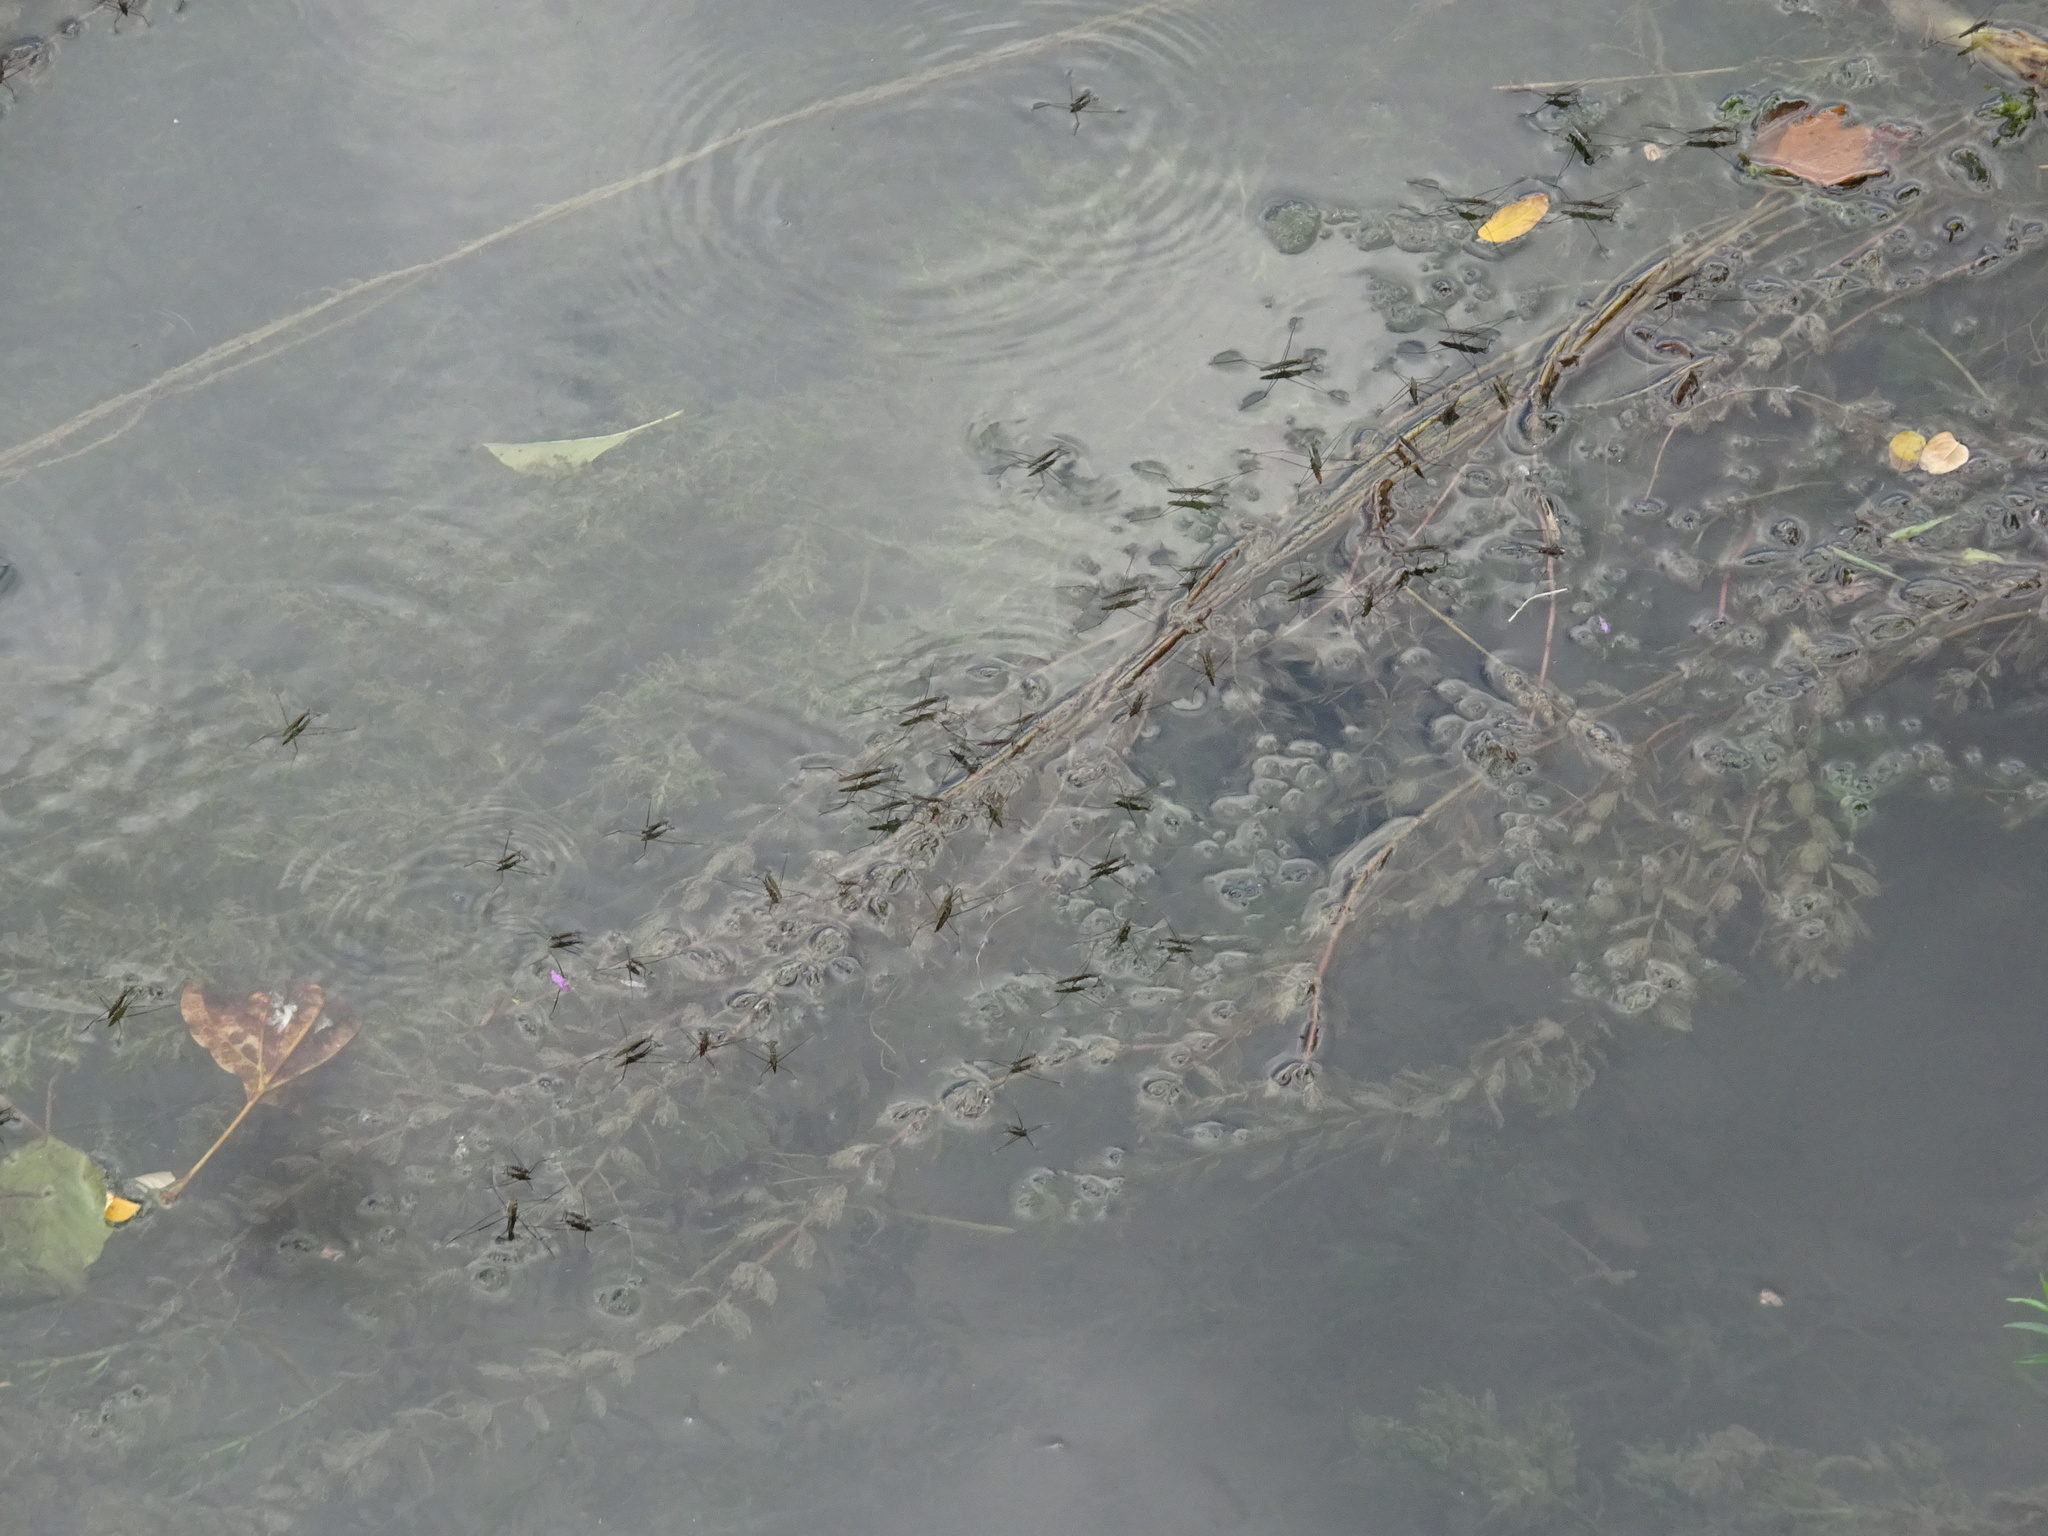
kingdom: Plantae
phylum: Tracheophyta
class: Magnoliopsida
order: Saxifragales
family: Haloragaceae
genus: Myriophyllum
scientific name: Myriophyllum spicatum
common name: Spiked water-milfoil
